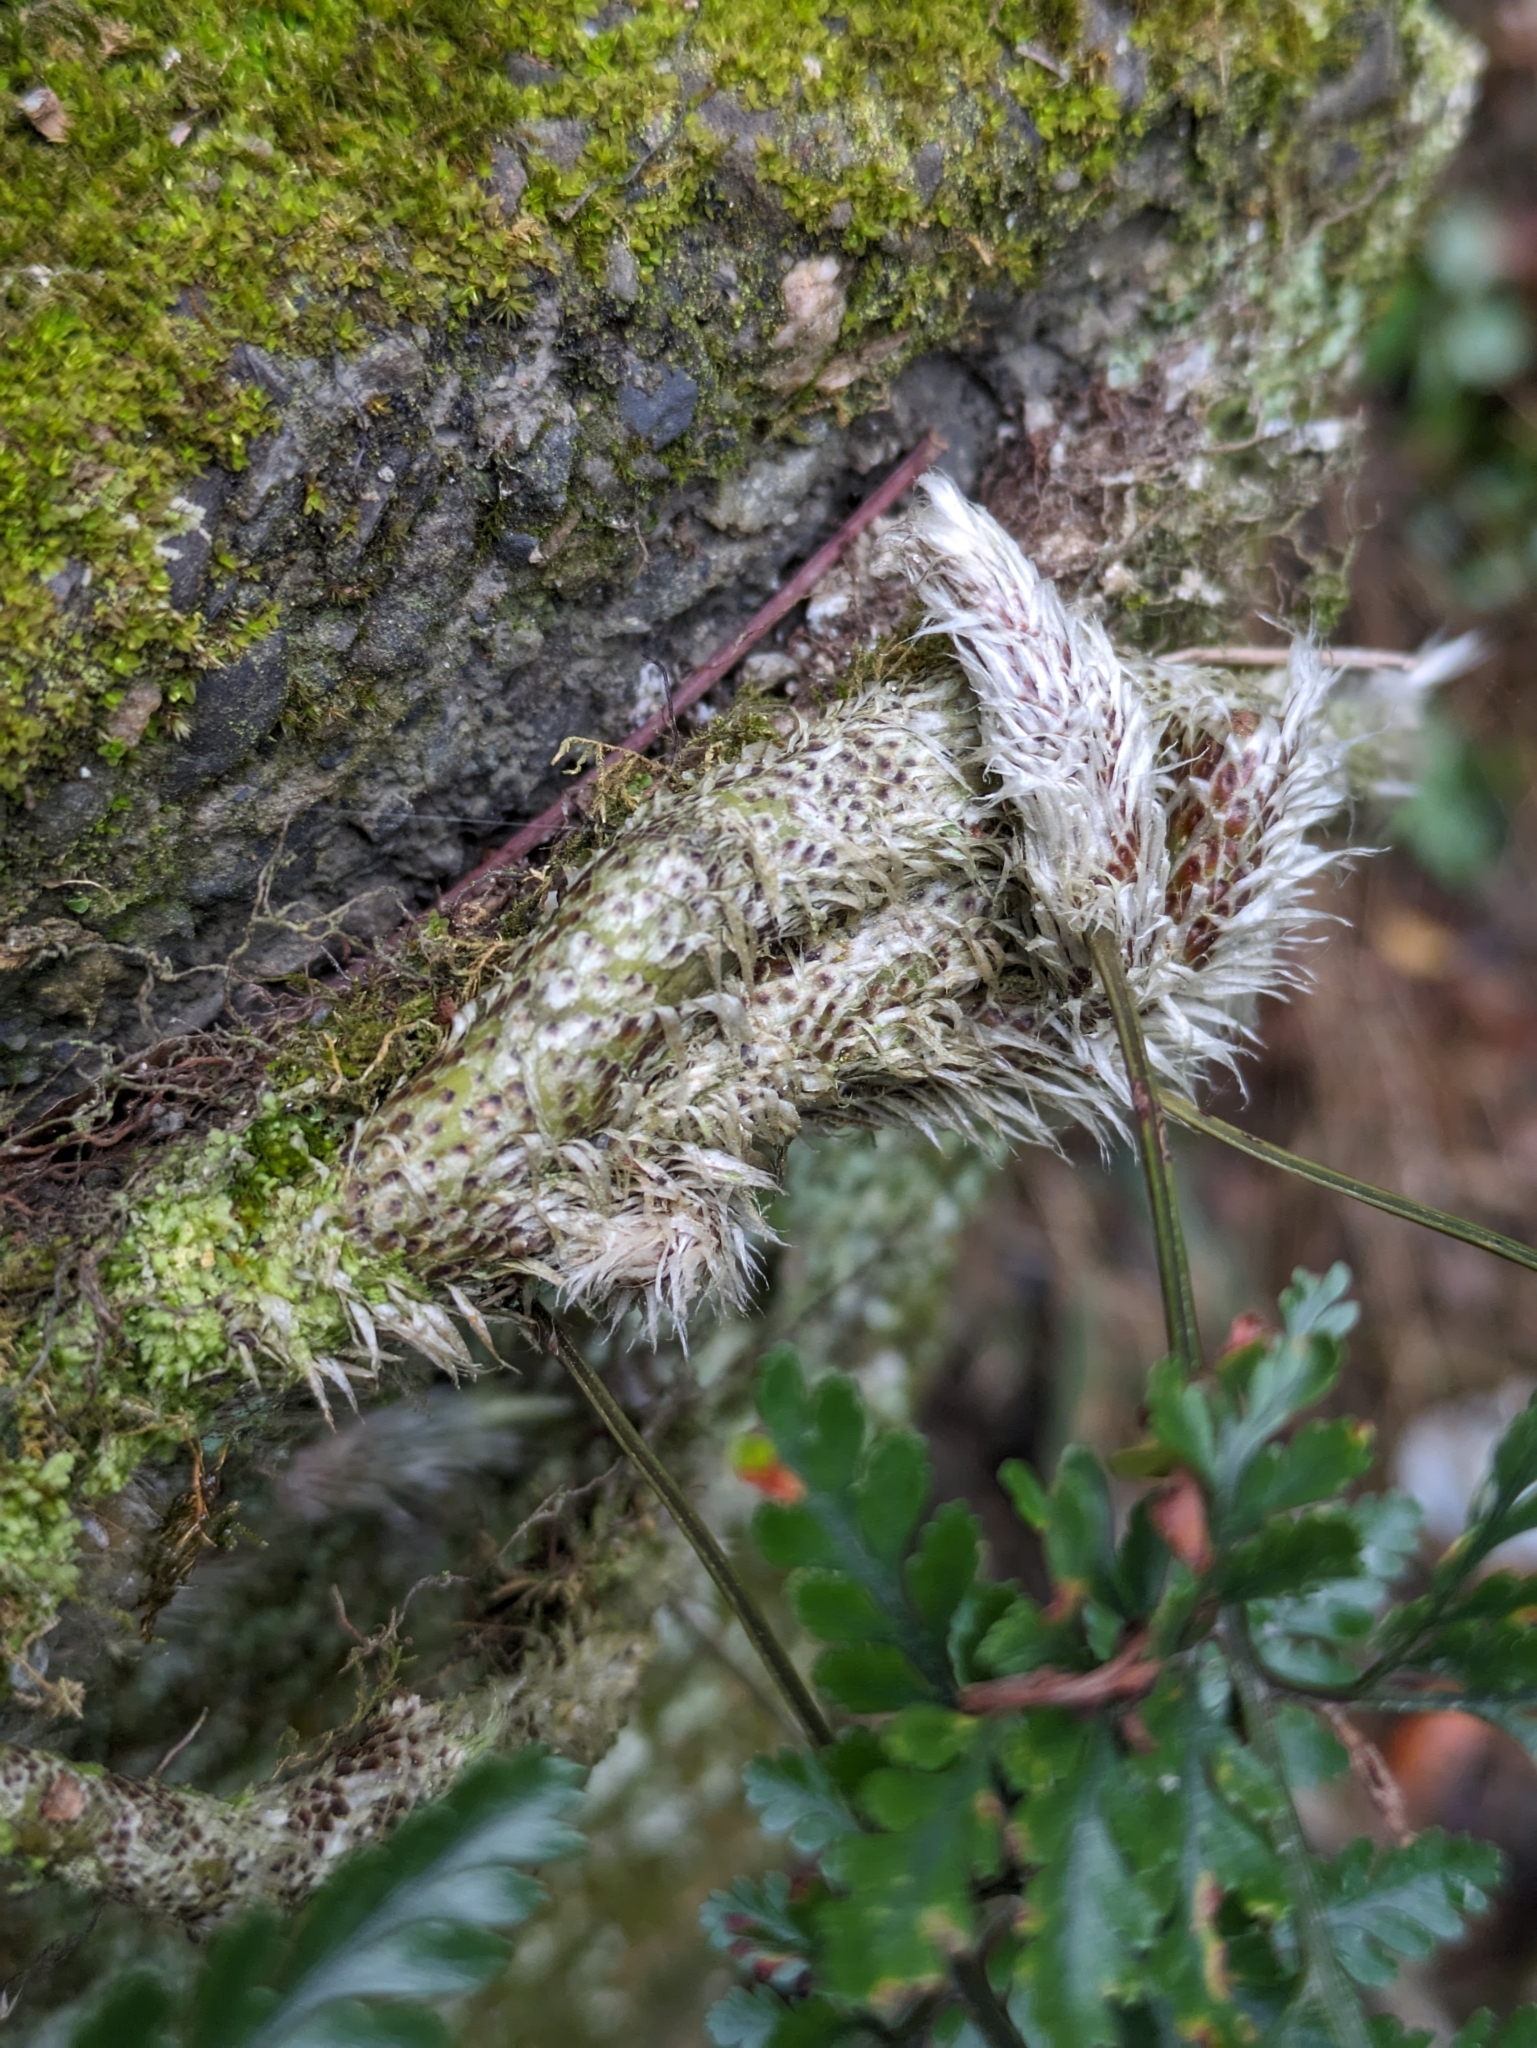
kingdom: Plantae
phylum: Tracheophyta
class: Polypodiopsida
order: Polypodiales
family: Davalliaceae
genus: Davallia
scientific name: Davallia griffithiana
